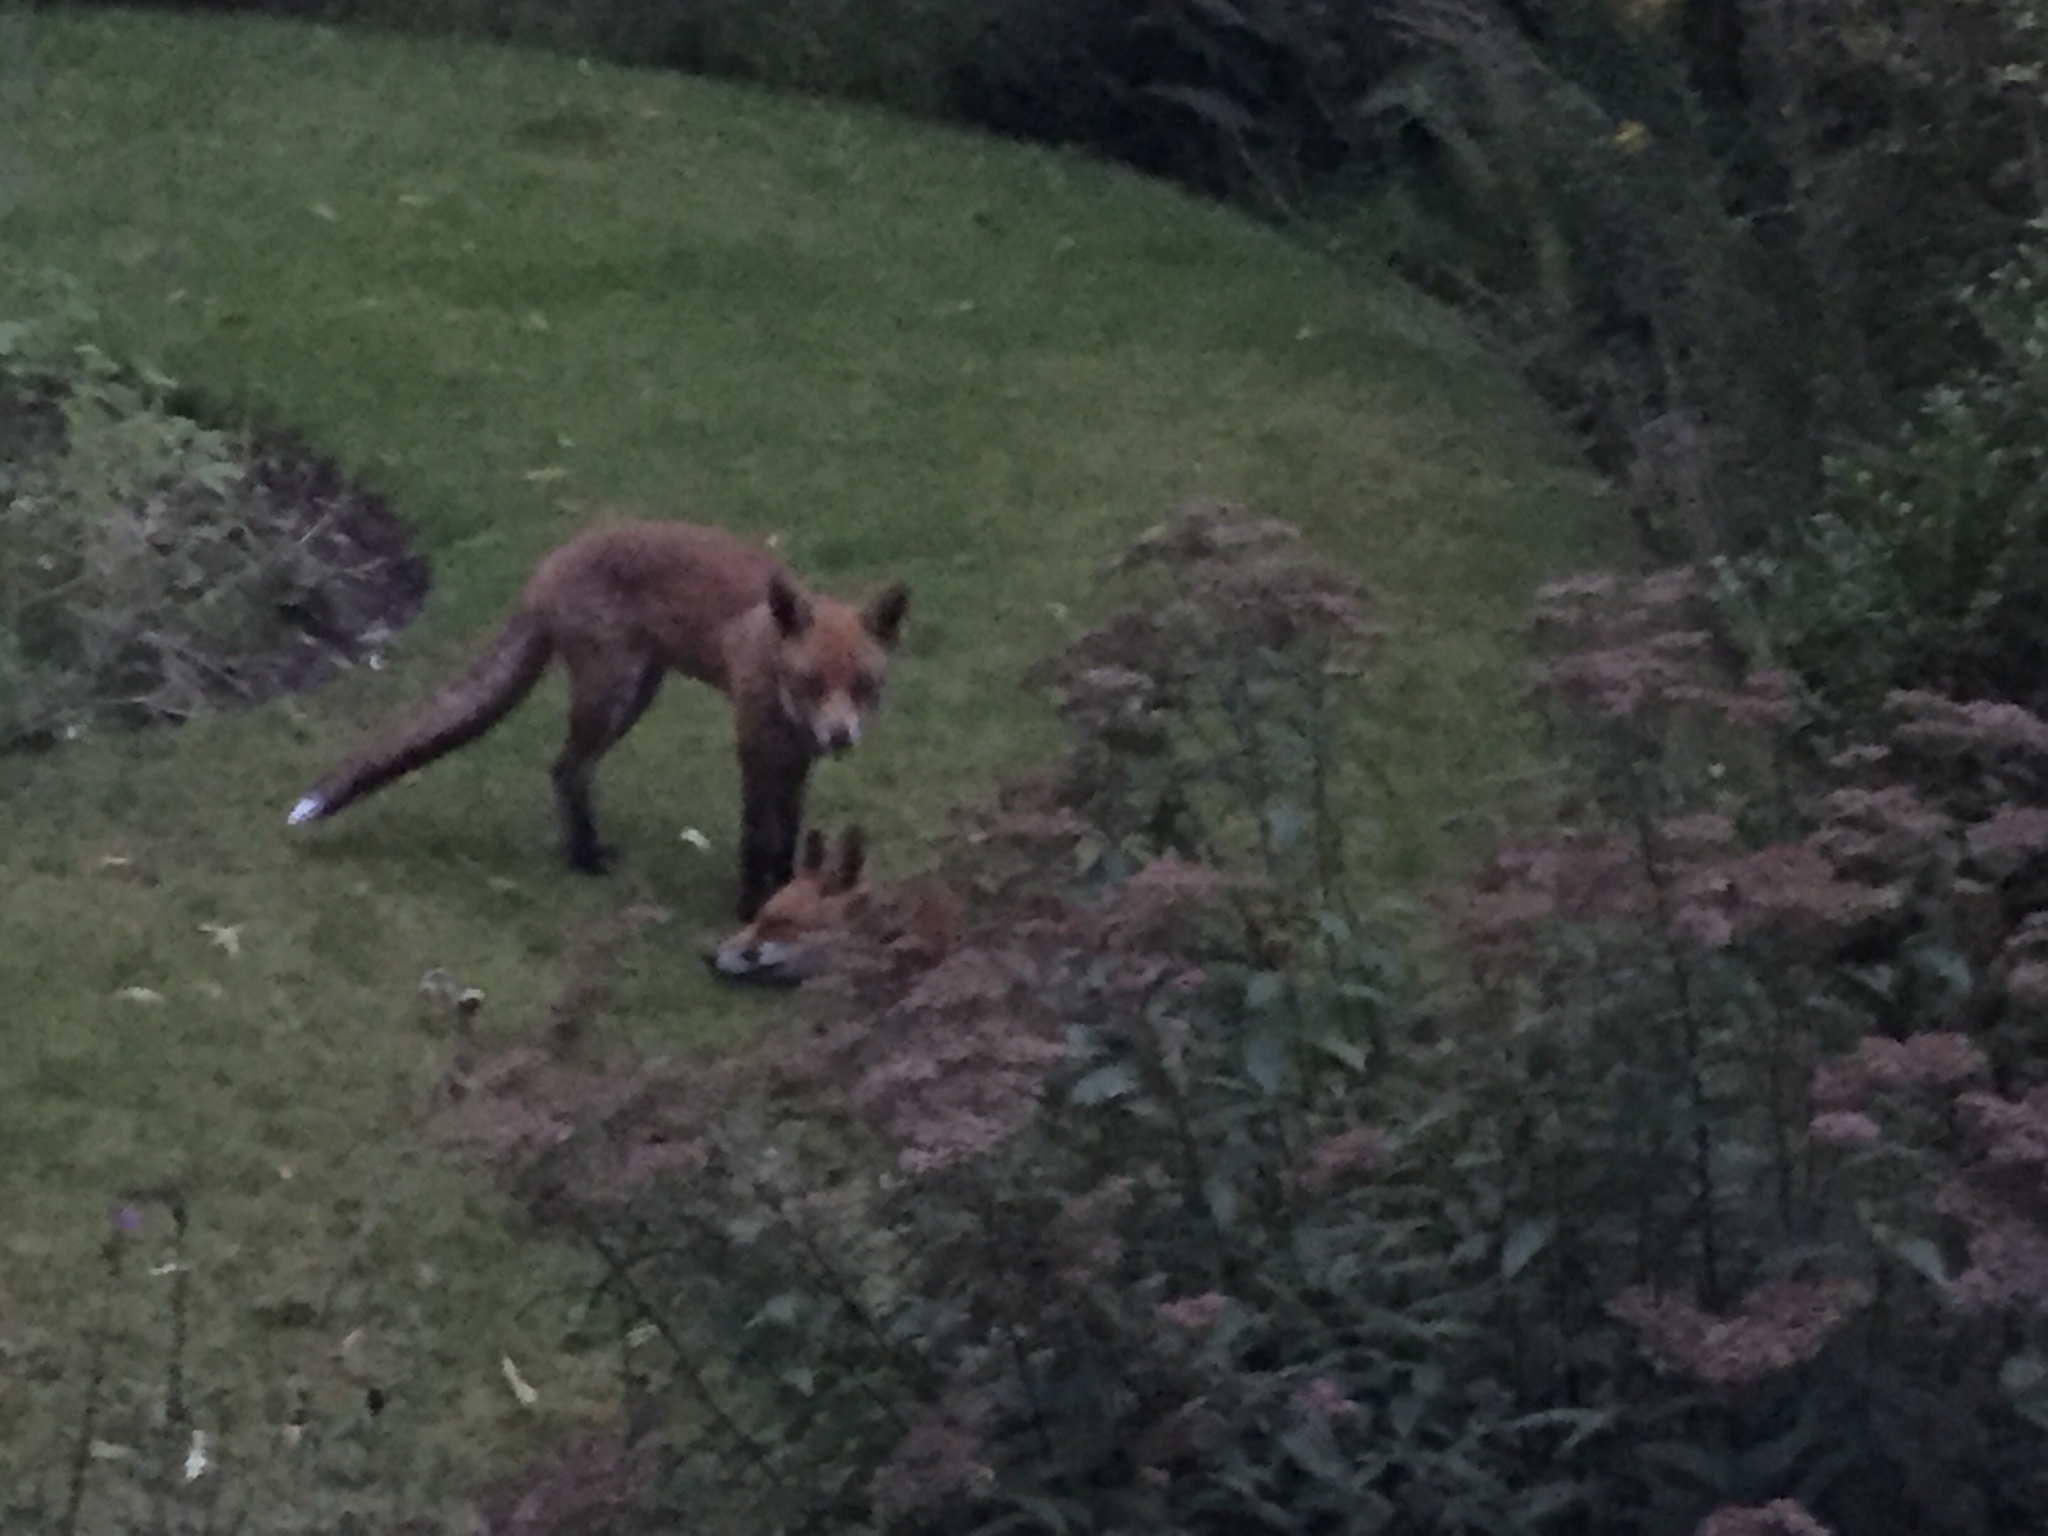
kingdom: Animalia
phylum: Chordata
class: Mammalia
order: Carnivora
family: Canidae
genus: Vulpes
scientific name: Vulpes vulpes
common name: Red fox
